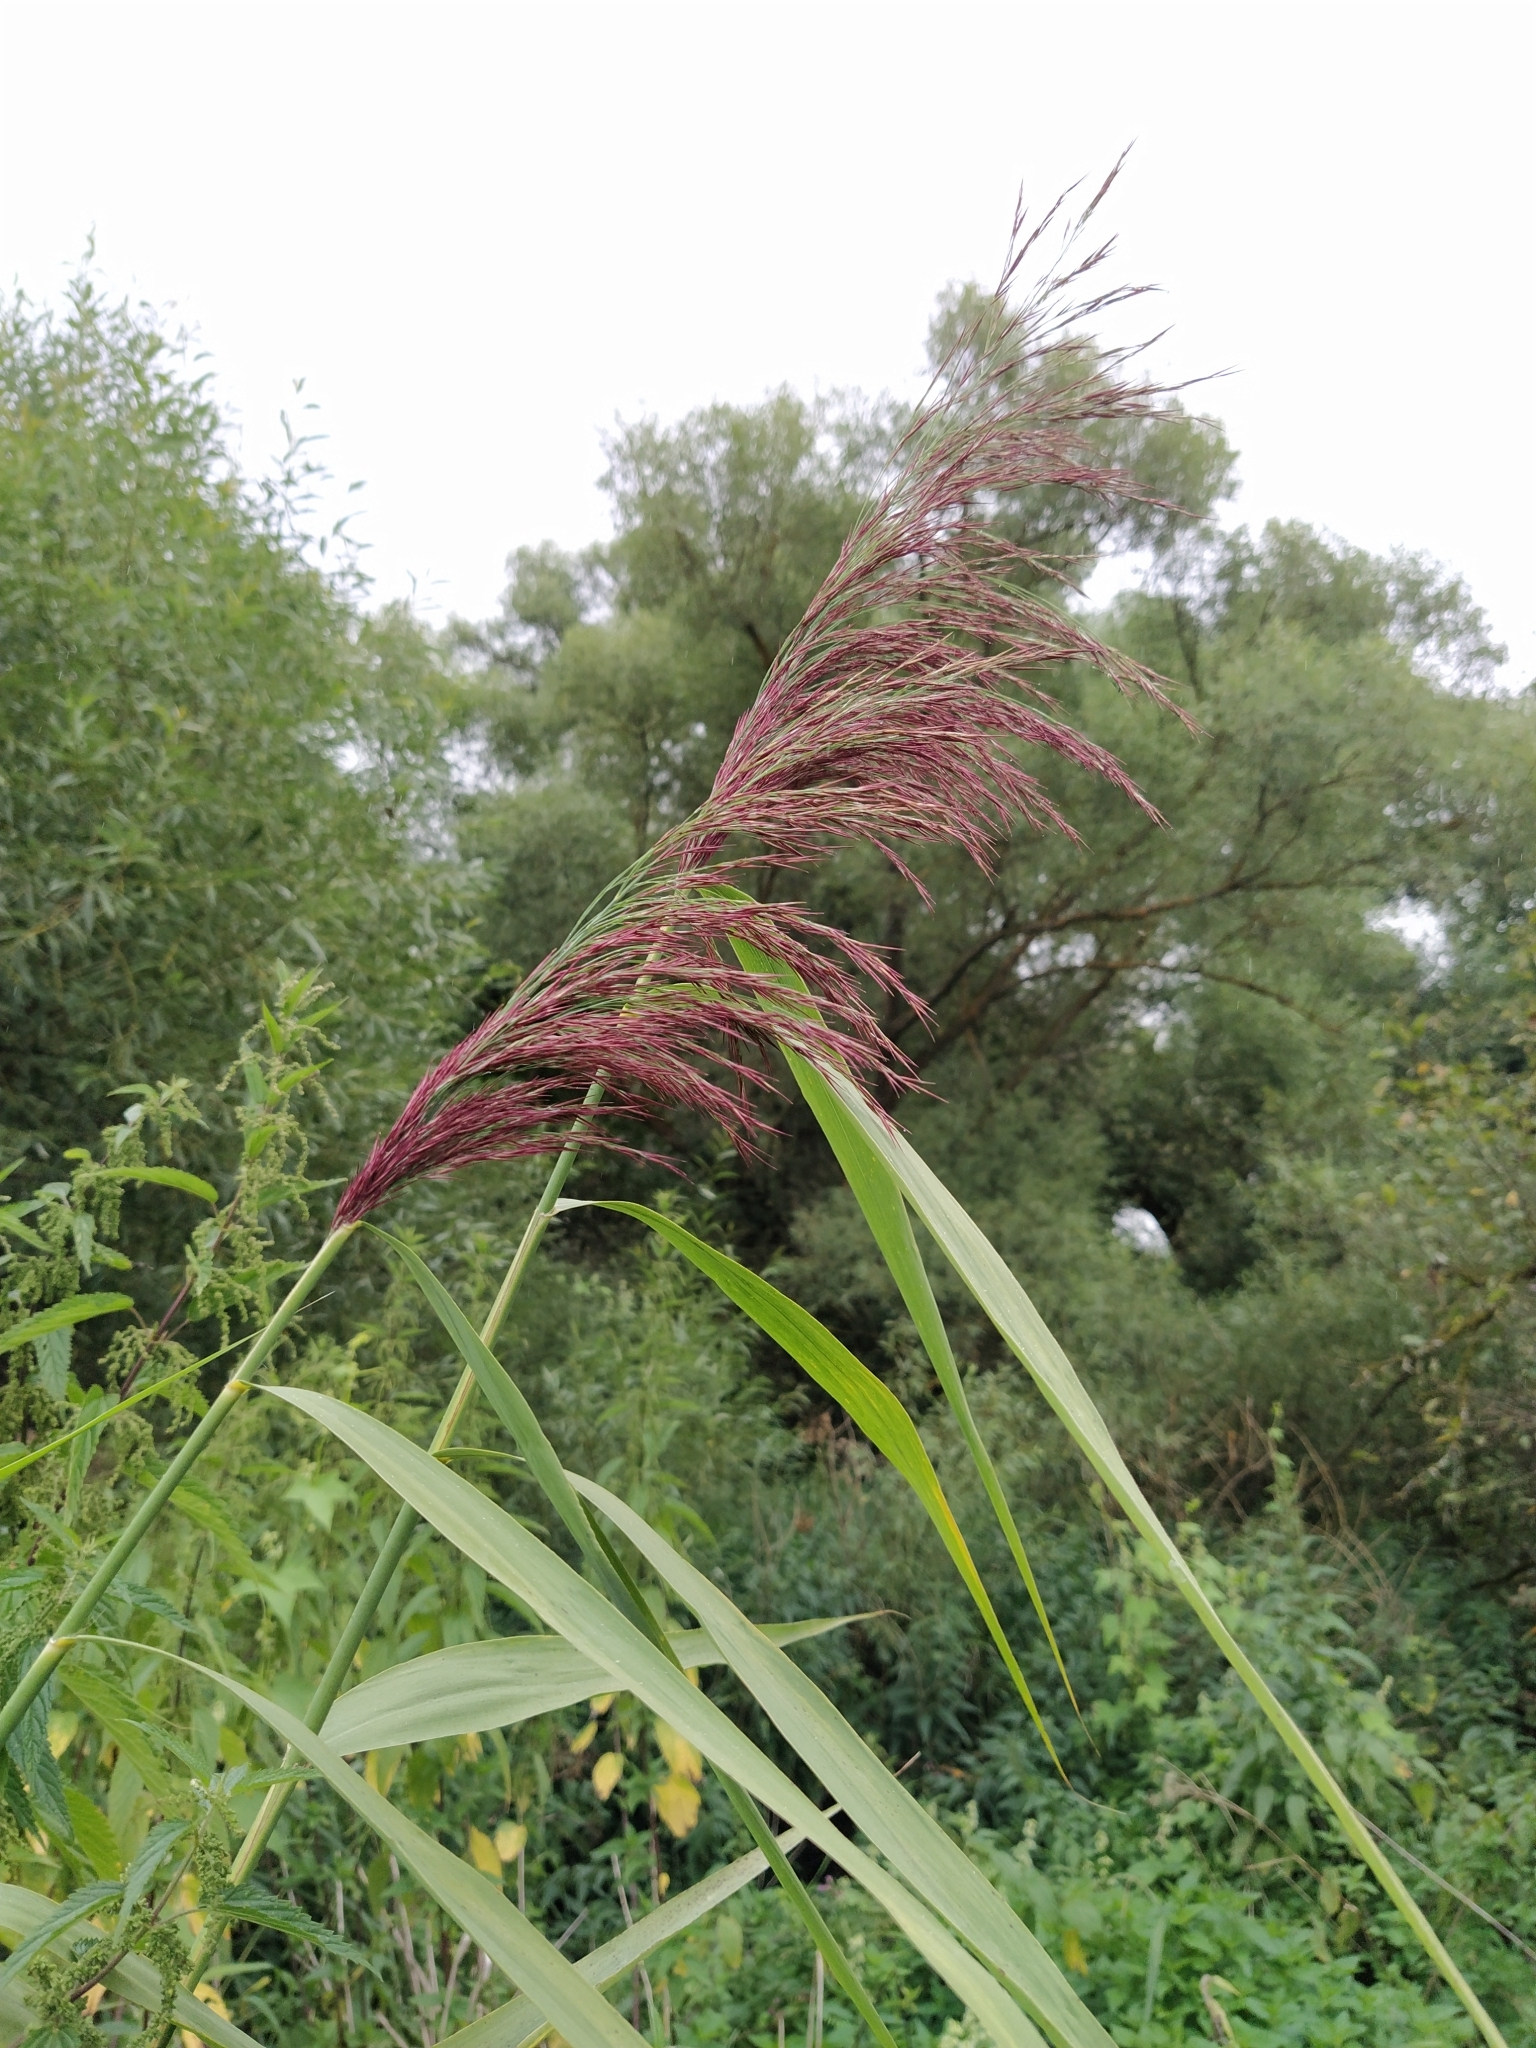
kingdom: Plantae
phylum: Tracheophyta
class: Liliopsida
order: Poales
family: Poaceae
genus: Phragmites
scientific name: Phragmites australis
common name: Common reed
